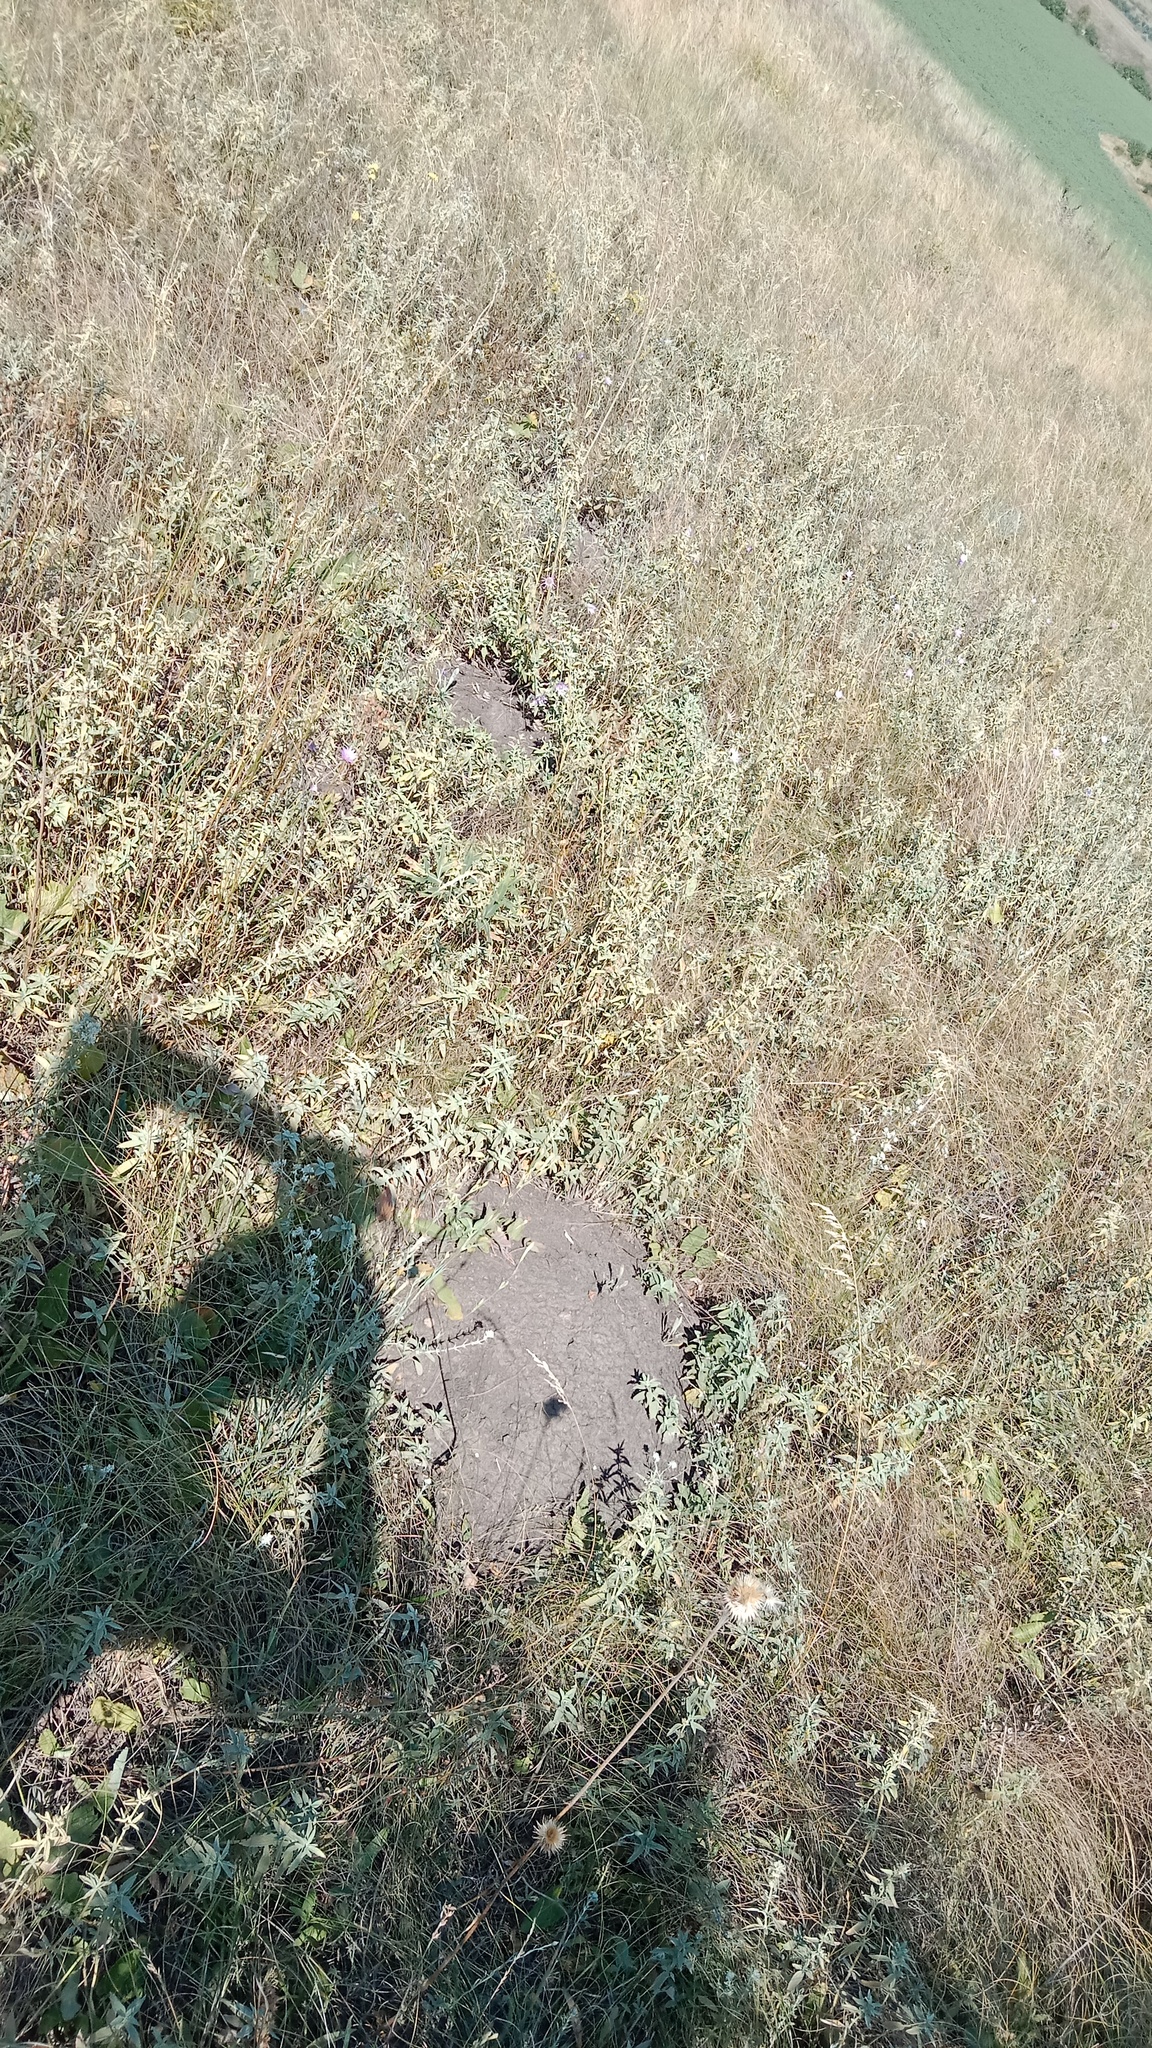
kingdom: Animalia
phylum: Chordata
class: Mammalia
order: Rodentia
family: Spalacidae
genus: Spalax
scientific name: Spalax zemni
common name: Podolsk blind mole rat
